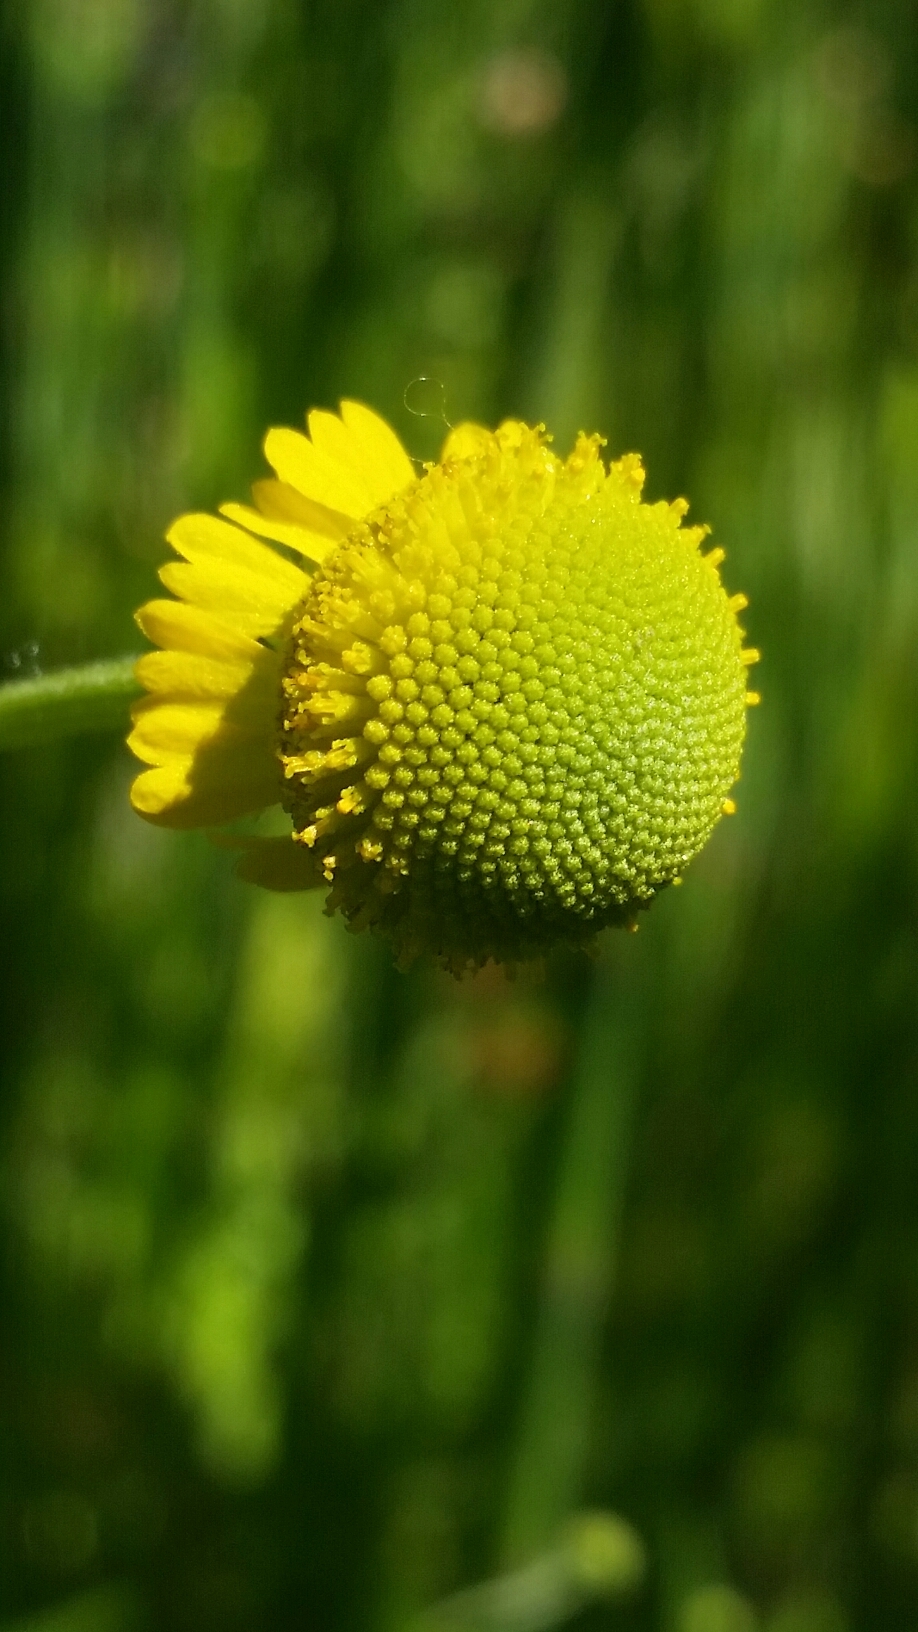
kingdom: Plantae
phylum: Tracheophyta
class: Magnoliopsida
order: Asterales
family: Asteraceae
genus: Helenium
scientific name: Helenium puberulum
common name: Sneezewort
